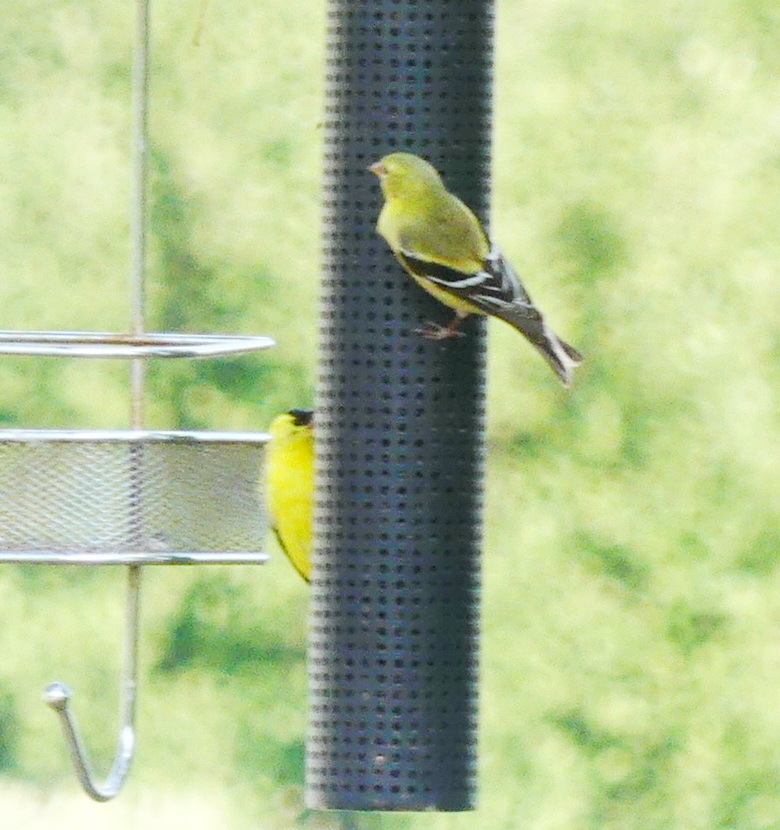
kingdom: Animalia
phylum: Chordata
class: Aves
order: Passeriformes
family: Fringillidae
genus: Spinus
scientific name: Spinus tristis
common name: American goldfinch
